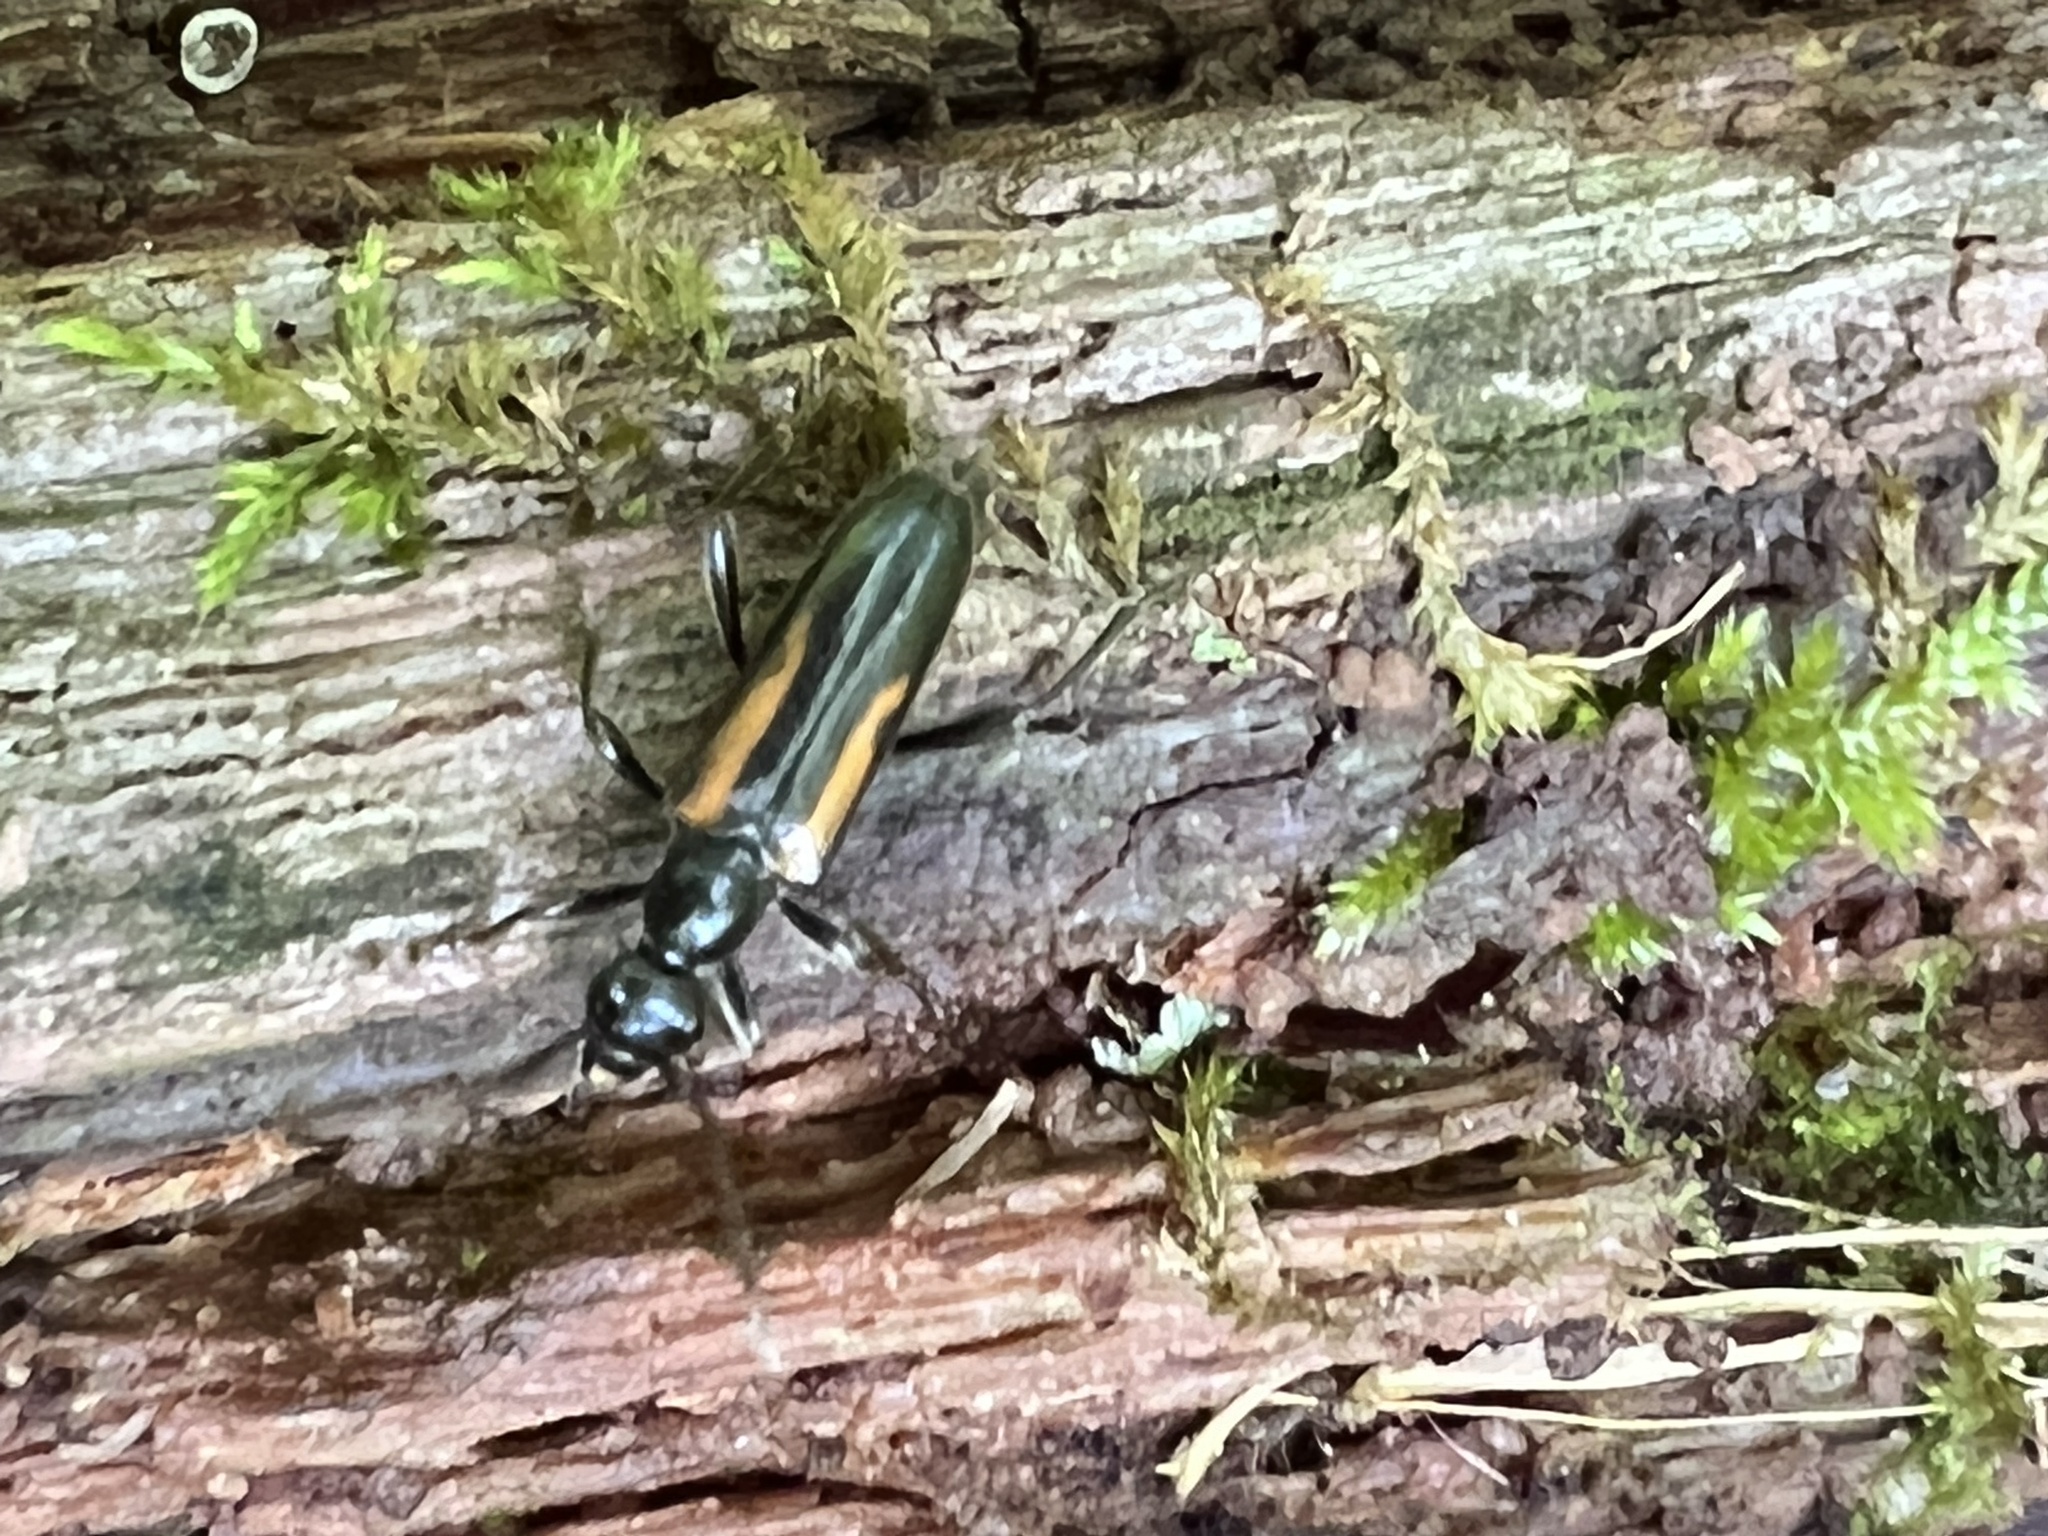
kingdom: Animalia
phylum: Arthropoda
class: Insecta
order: Coleoptera
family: Cerambycidae
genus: Strangalepta
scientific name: Strangalepta abbreviata
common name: Strangalepta flower longhorn beetle
